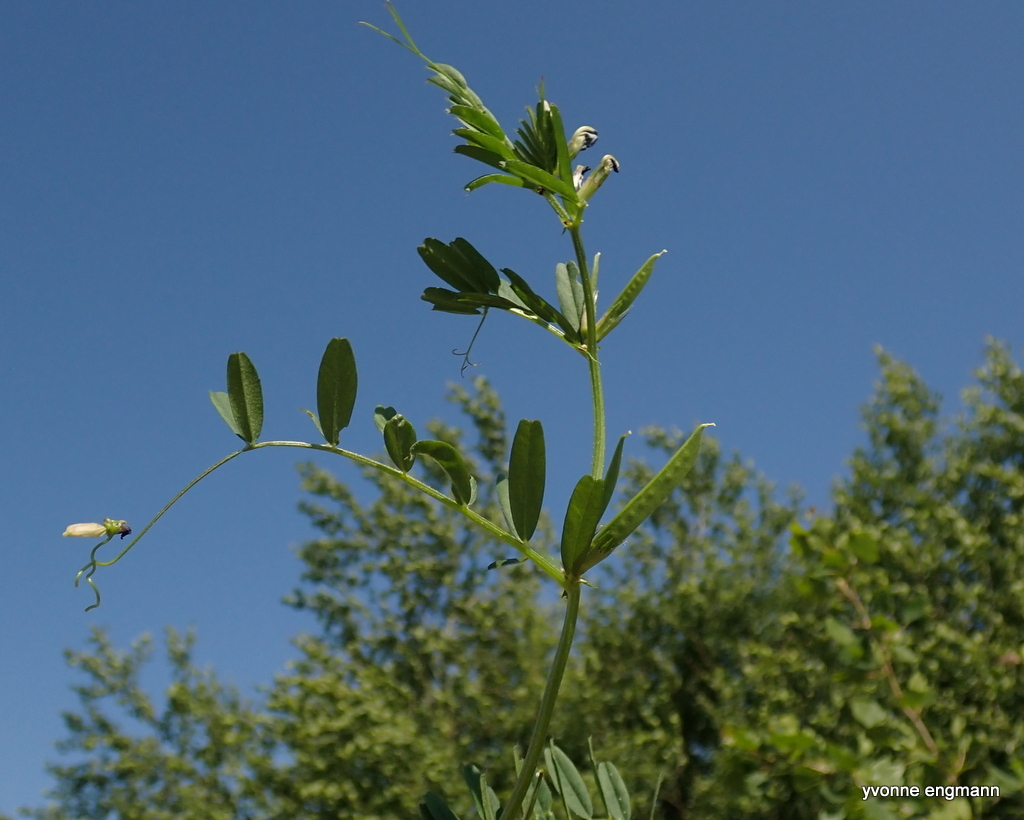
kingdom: Plantae
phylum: Tracheophyta
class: Magnoliopsida
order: Fabales
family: Fabaceae
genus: Vicia
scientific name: Vicia sativa
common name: Garden vetch
